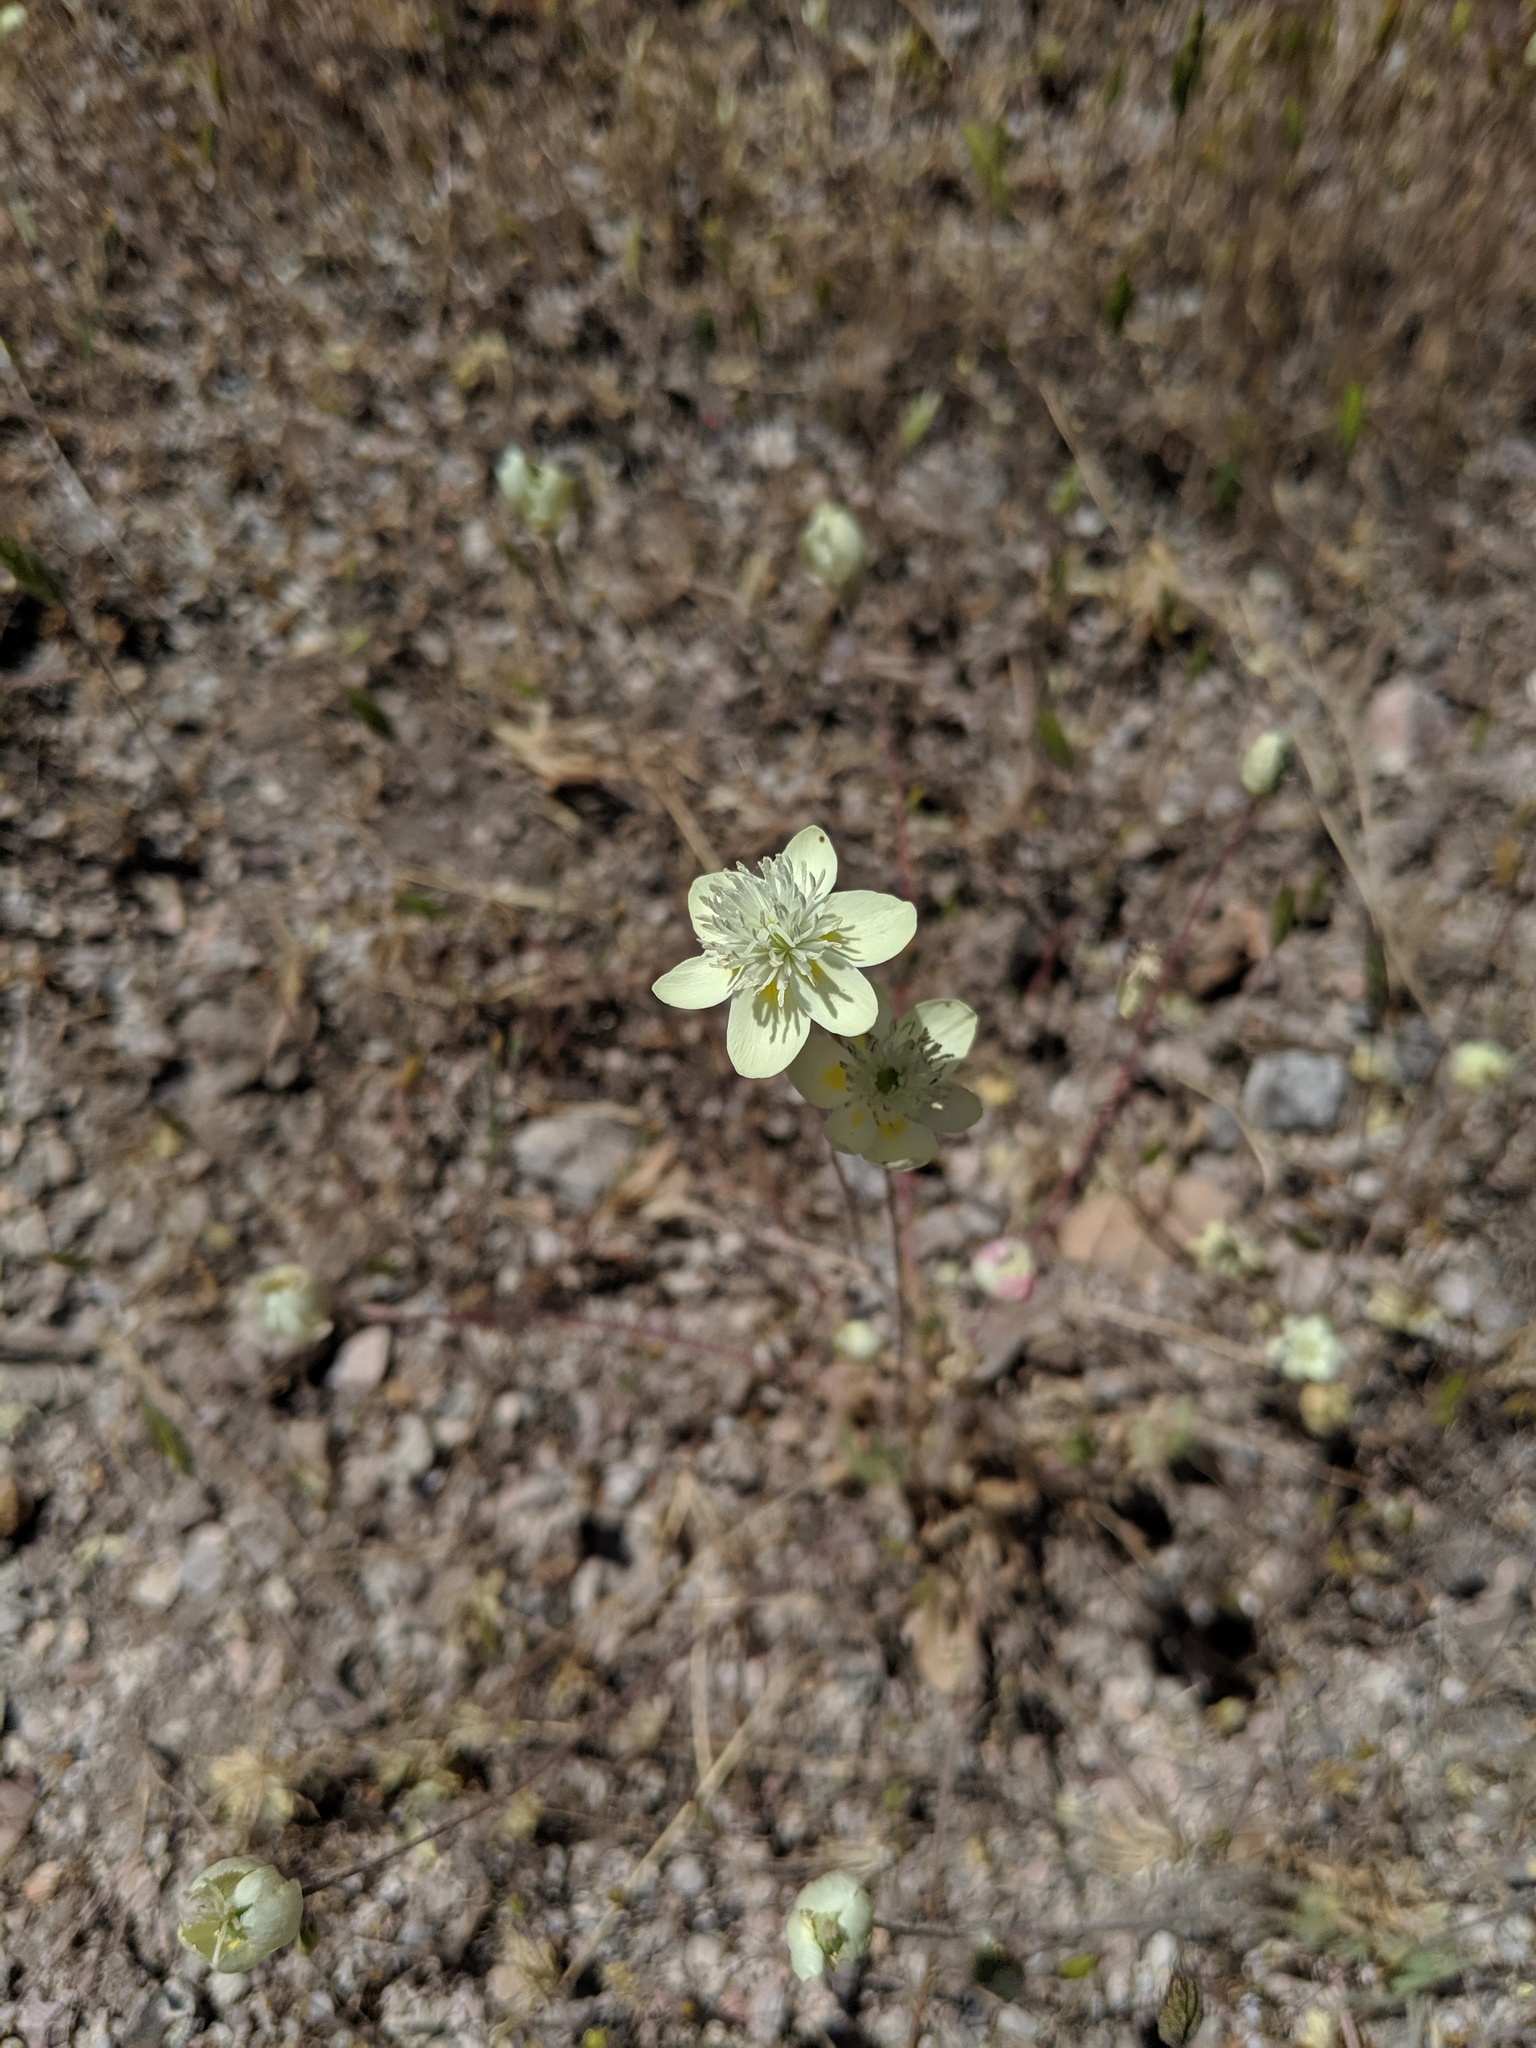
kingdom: Plantae
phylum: Tracheophyta
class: Magnoliopsida
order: Ranunculales
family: Papaveraceae
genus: Platystemon
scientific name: Platystemon californicus
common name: Cream-cups
